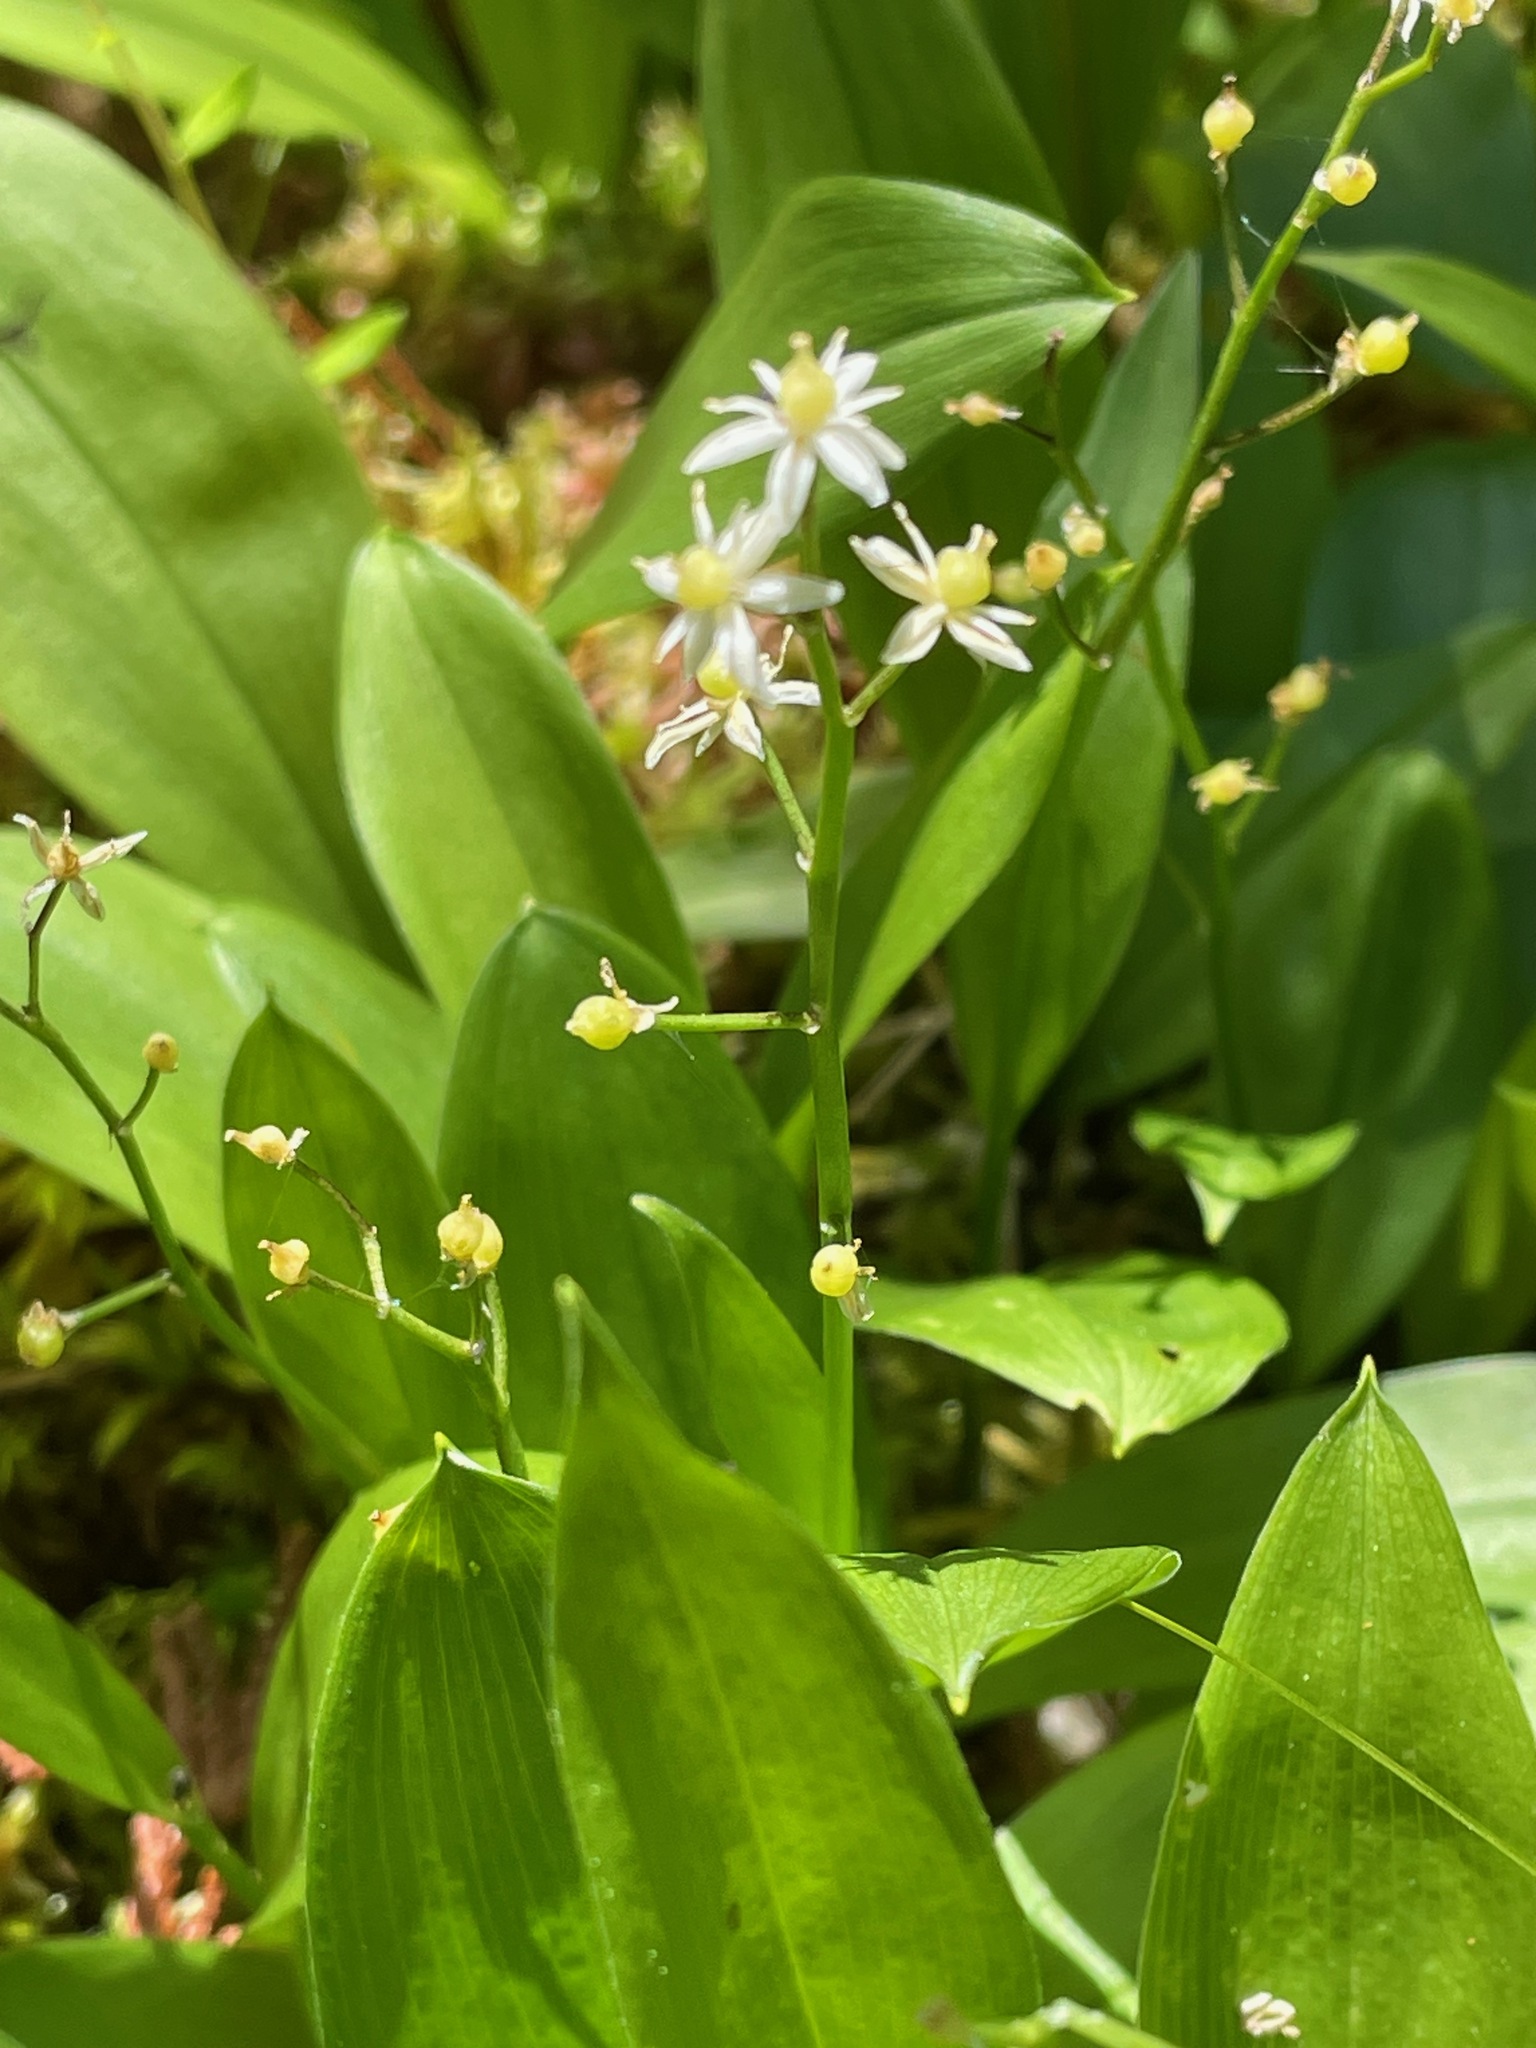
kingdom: Plantae
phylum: Tracheophyta
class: Liliopsida
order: Asparagales
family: Asparagaceae
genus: Maianthemum
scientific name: Maianthemum trifolium
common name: Swamp false solomon's seal
